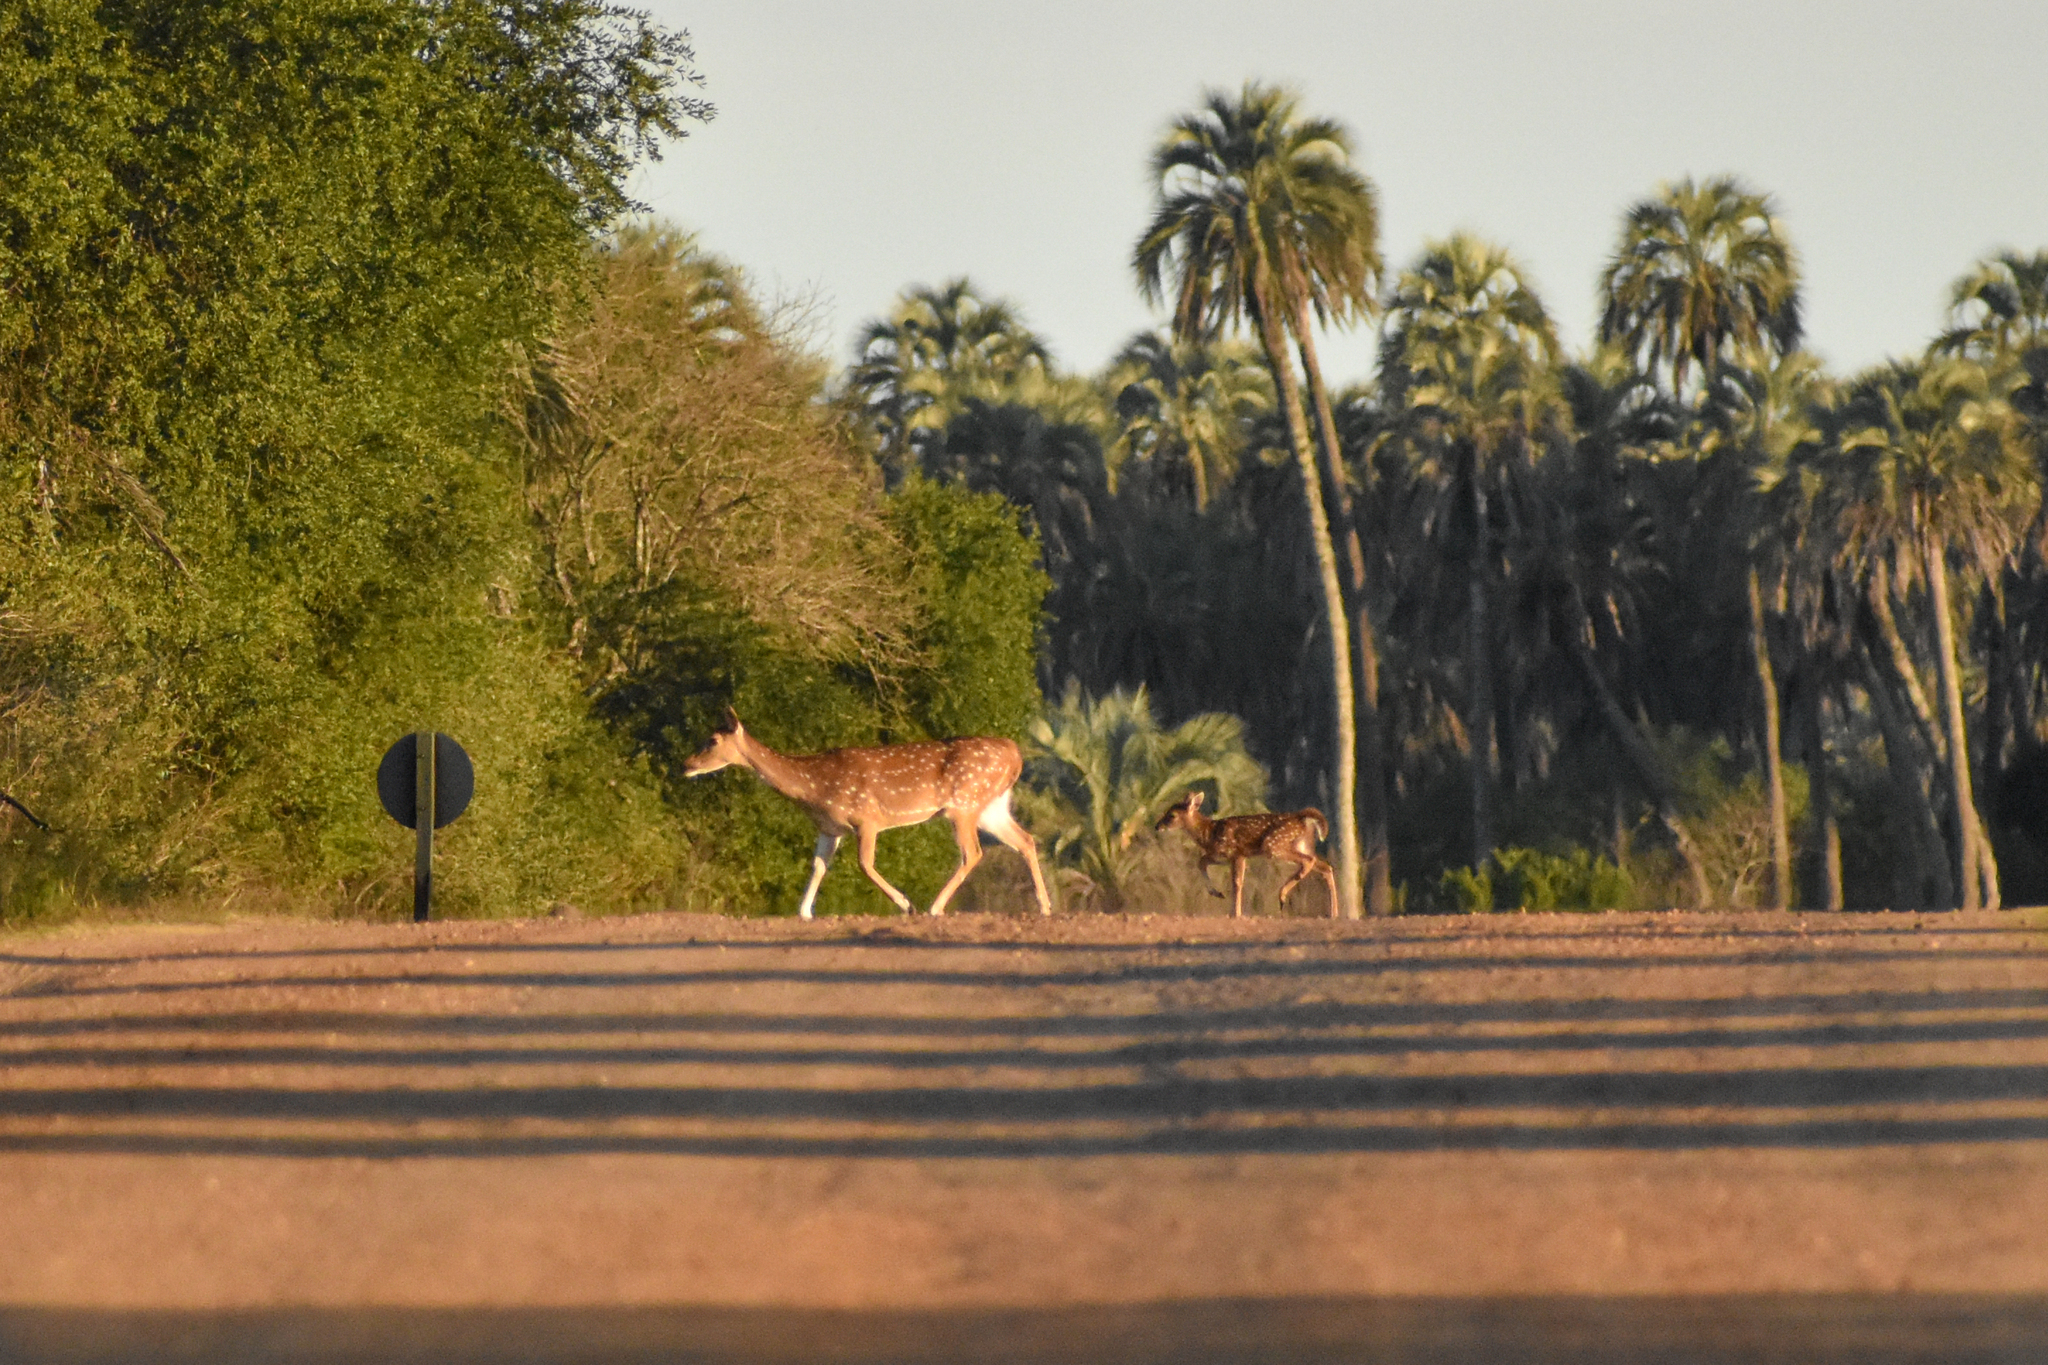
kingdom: Animalia
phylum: Chordata
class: Mammalia
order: Artiodactyla
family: Cervidae
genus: Axis
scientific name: Axis axis
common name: Chital
